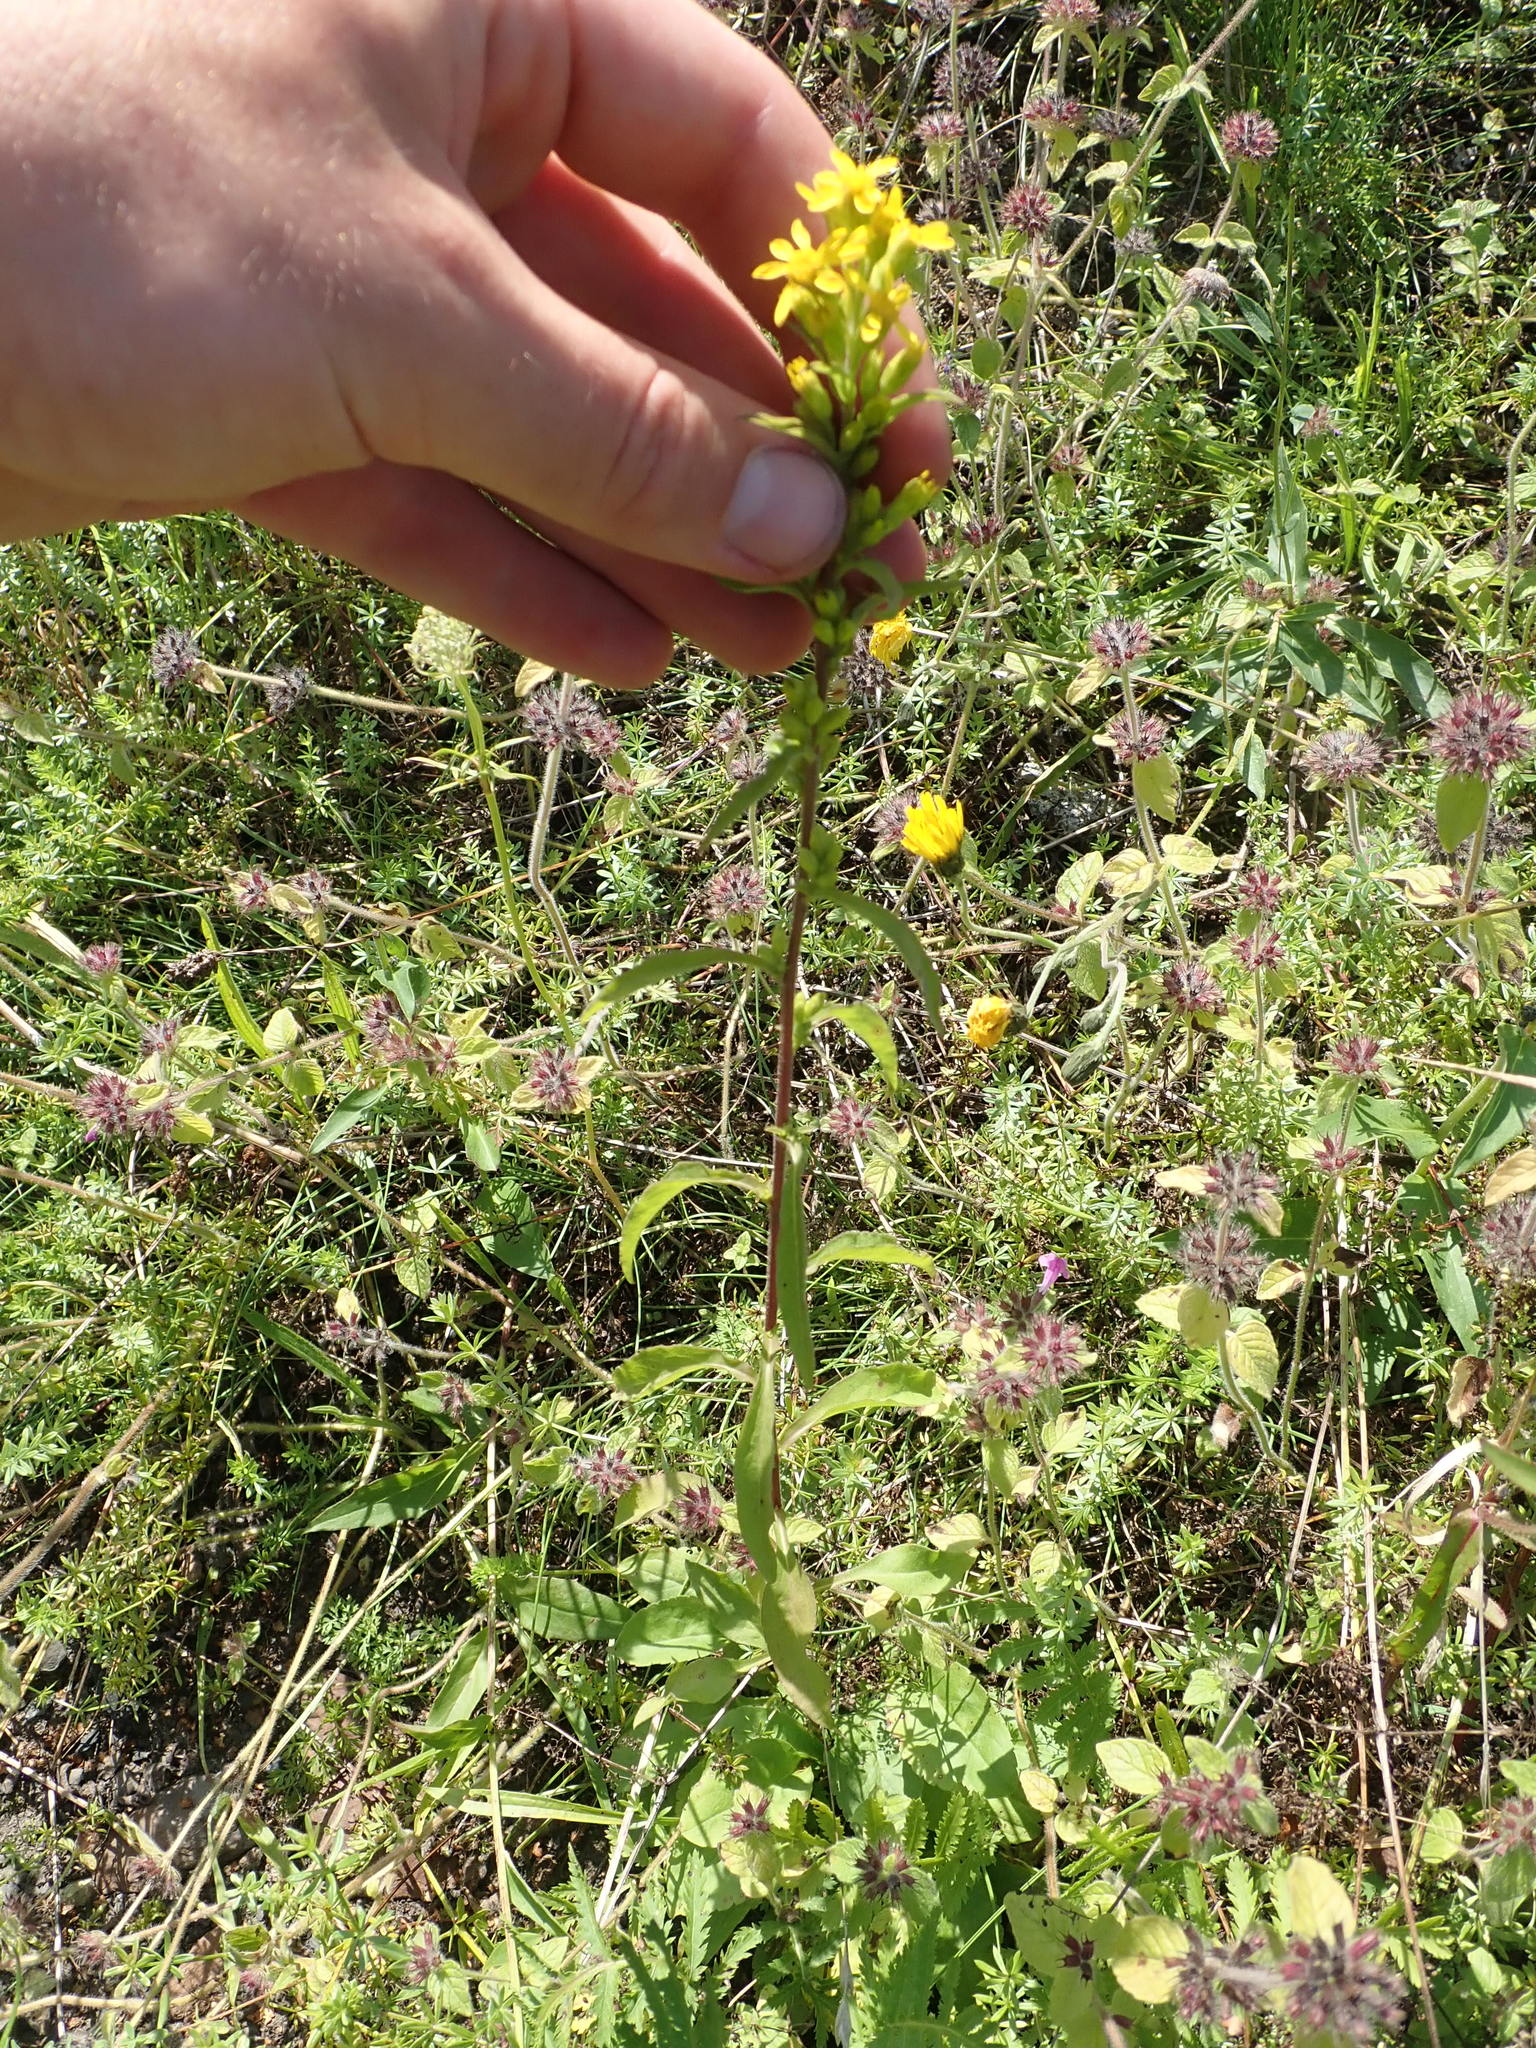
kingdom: Plantae
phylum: Tracheophyta
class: Magnoliopsida
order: Asterales
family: Asteraceae
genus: Solidago
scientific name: Solidago virgaurea
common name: Goldenrod
